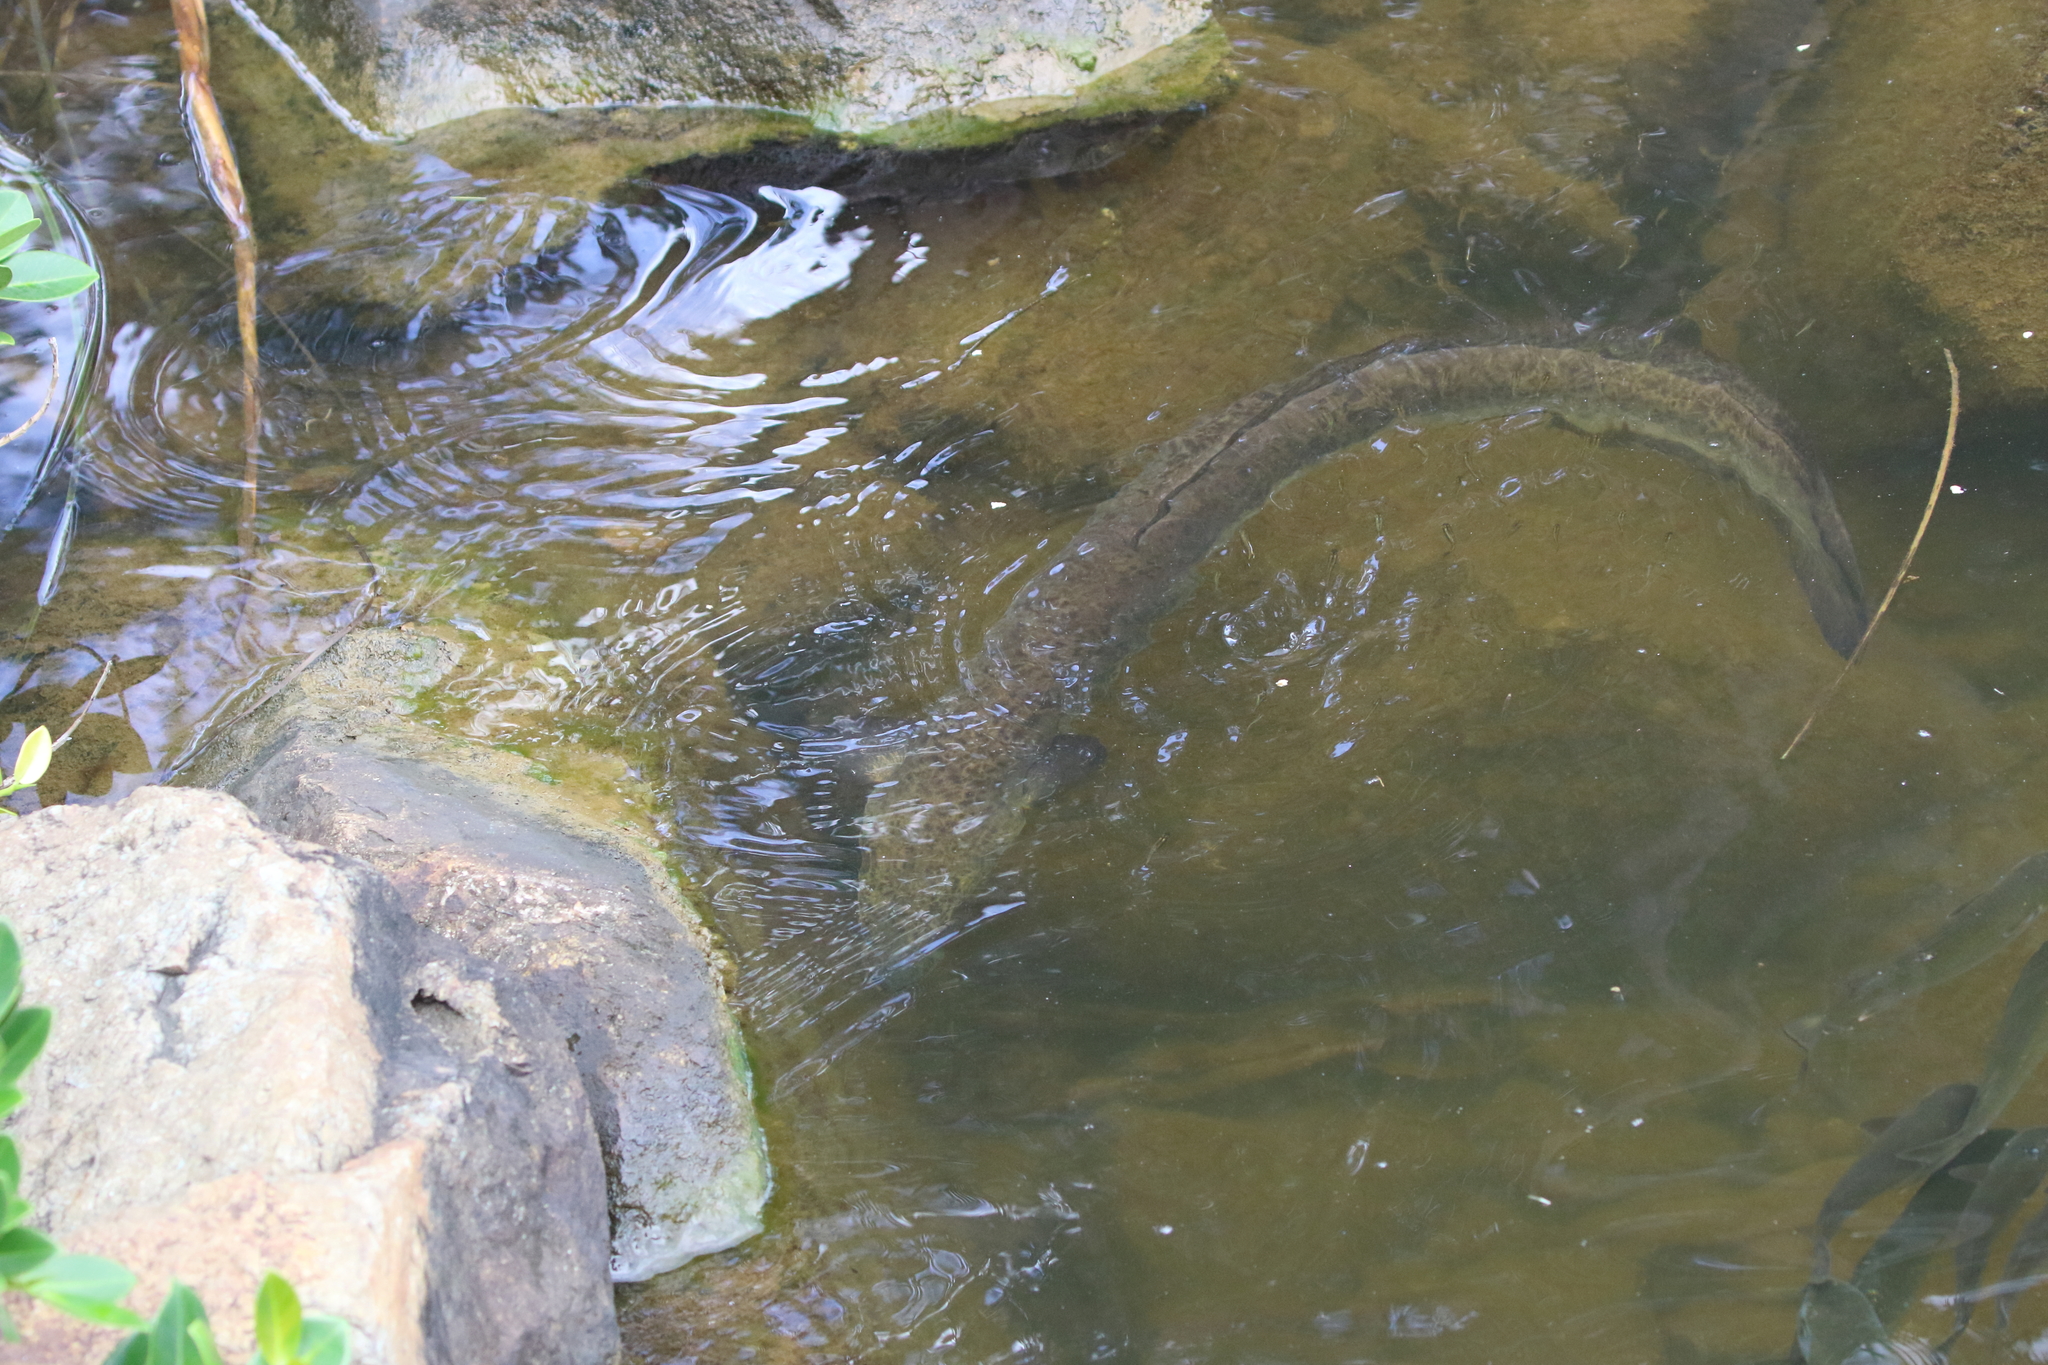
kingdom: Animalia
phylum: Chordata
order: Anguilliformes
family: Anguillidae
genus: Anguilla
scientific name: Anguilla reinhardtii
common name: Longfin eel
